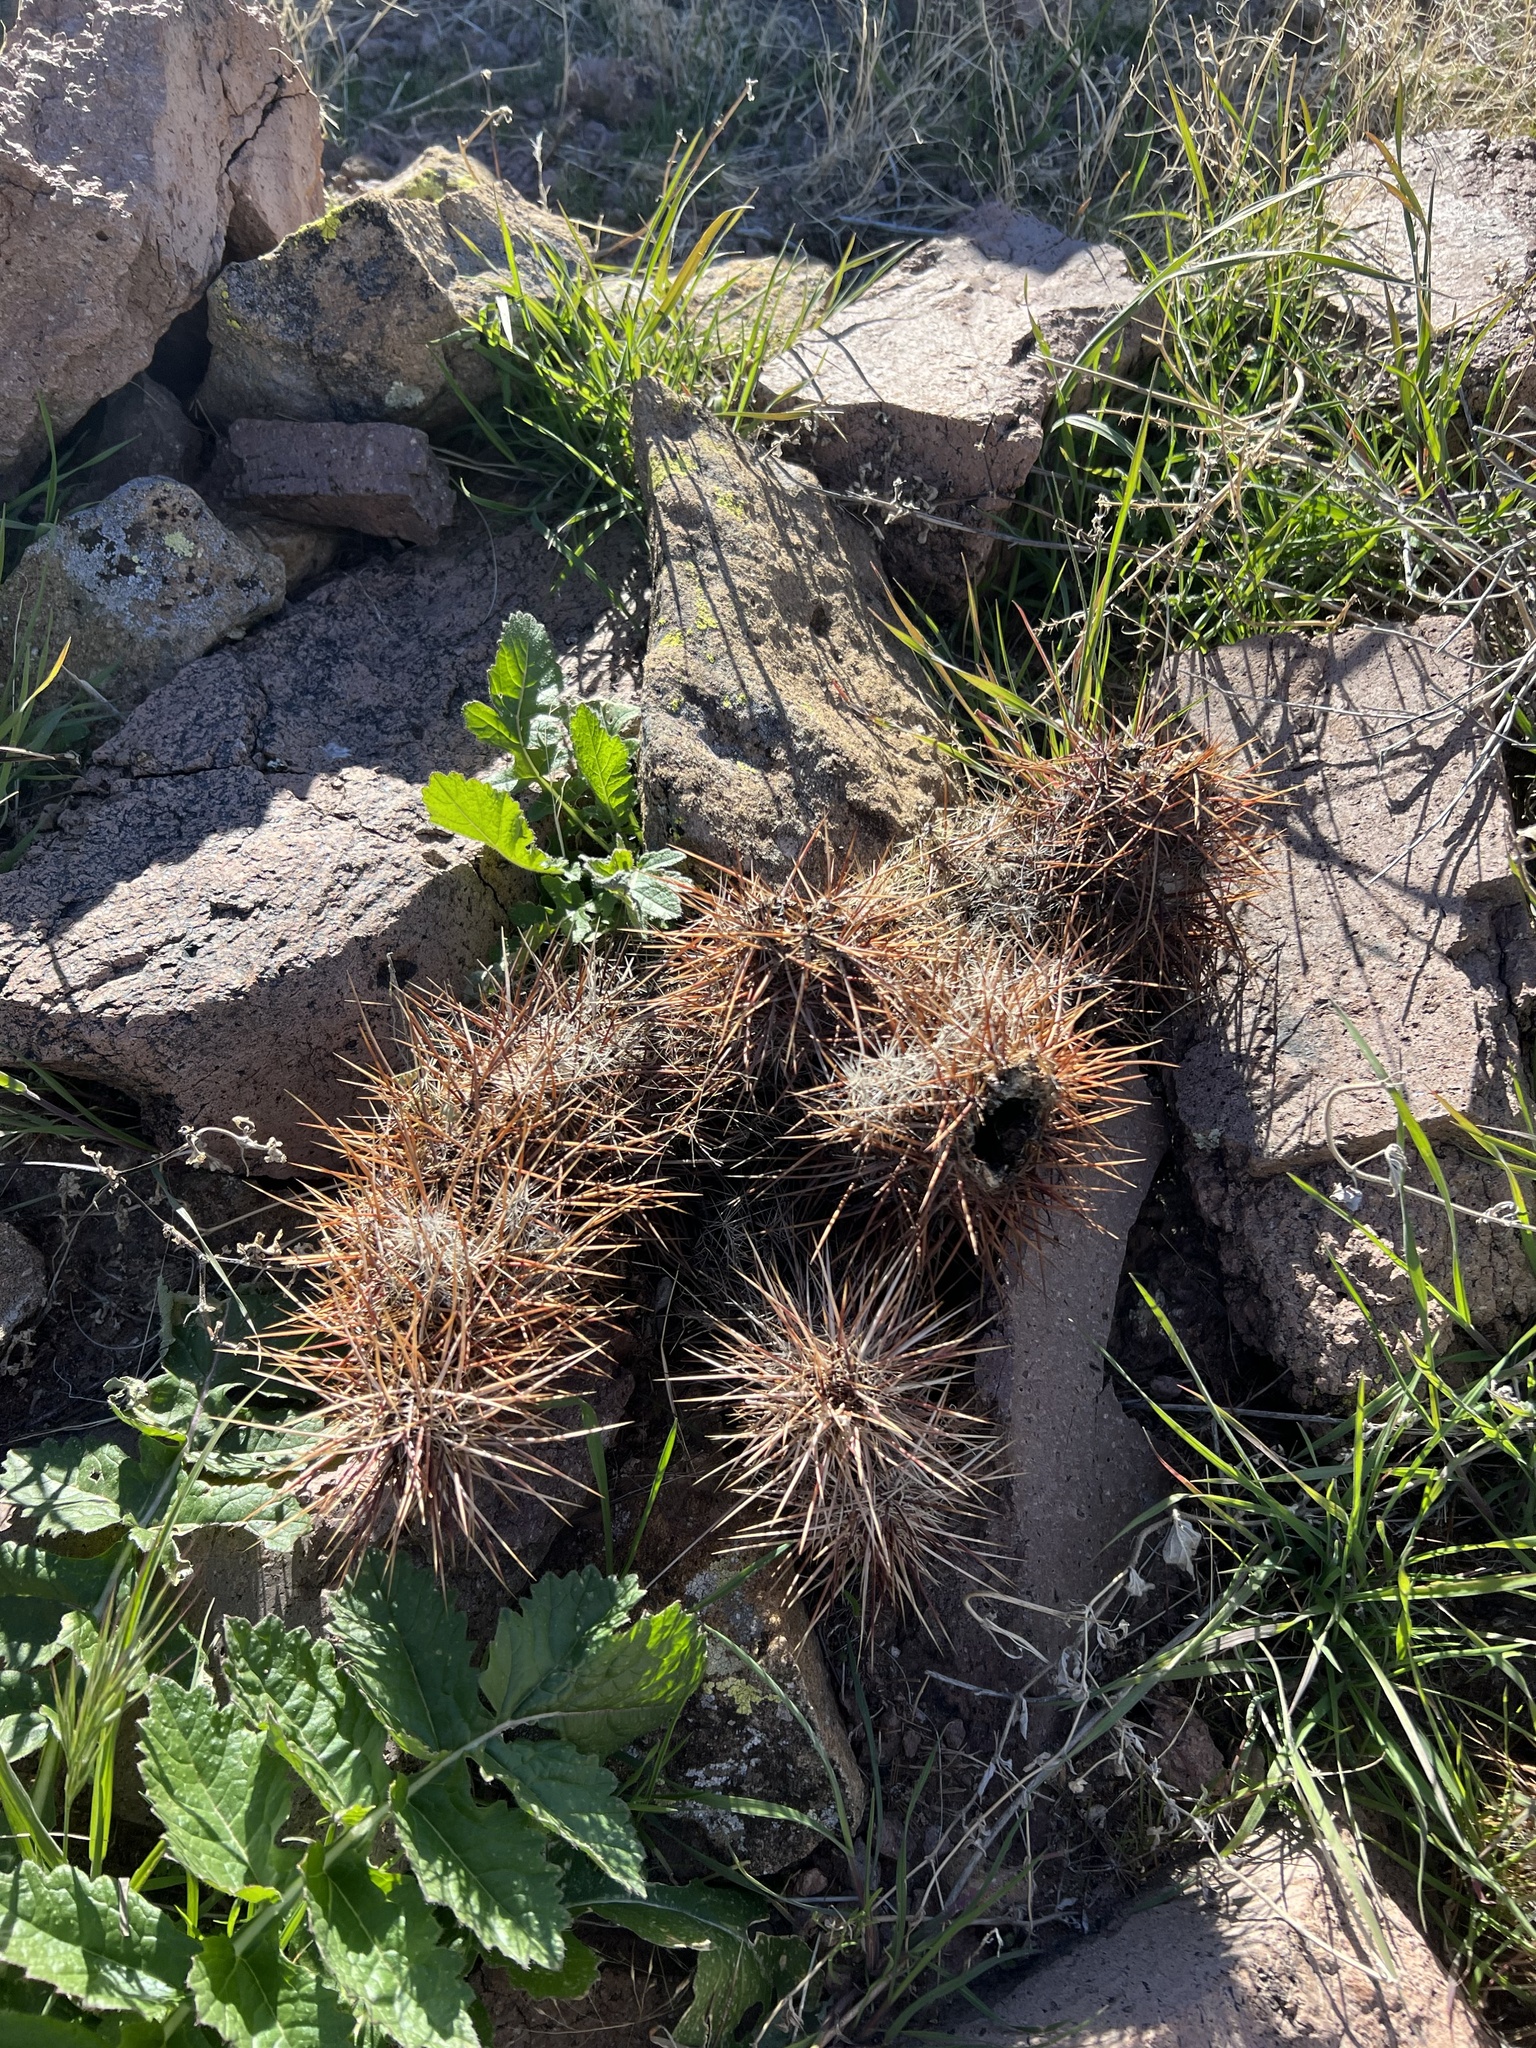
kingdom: Plantae
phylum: Tracheophyta
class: Magnoliopsida
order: Caryophyllales
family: Cactaceae
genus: Echinocereus
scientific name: Echinocereus engelmannii
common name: Engelmann's hedgehog cactus
